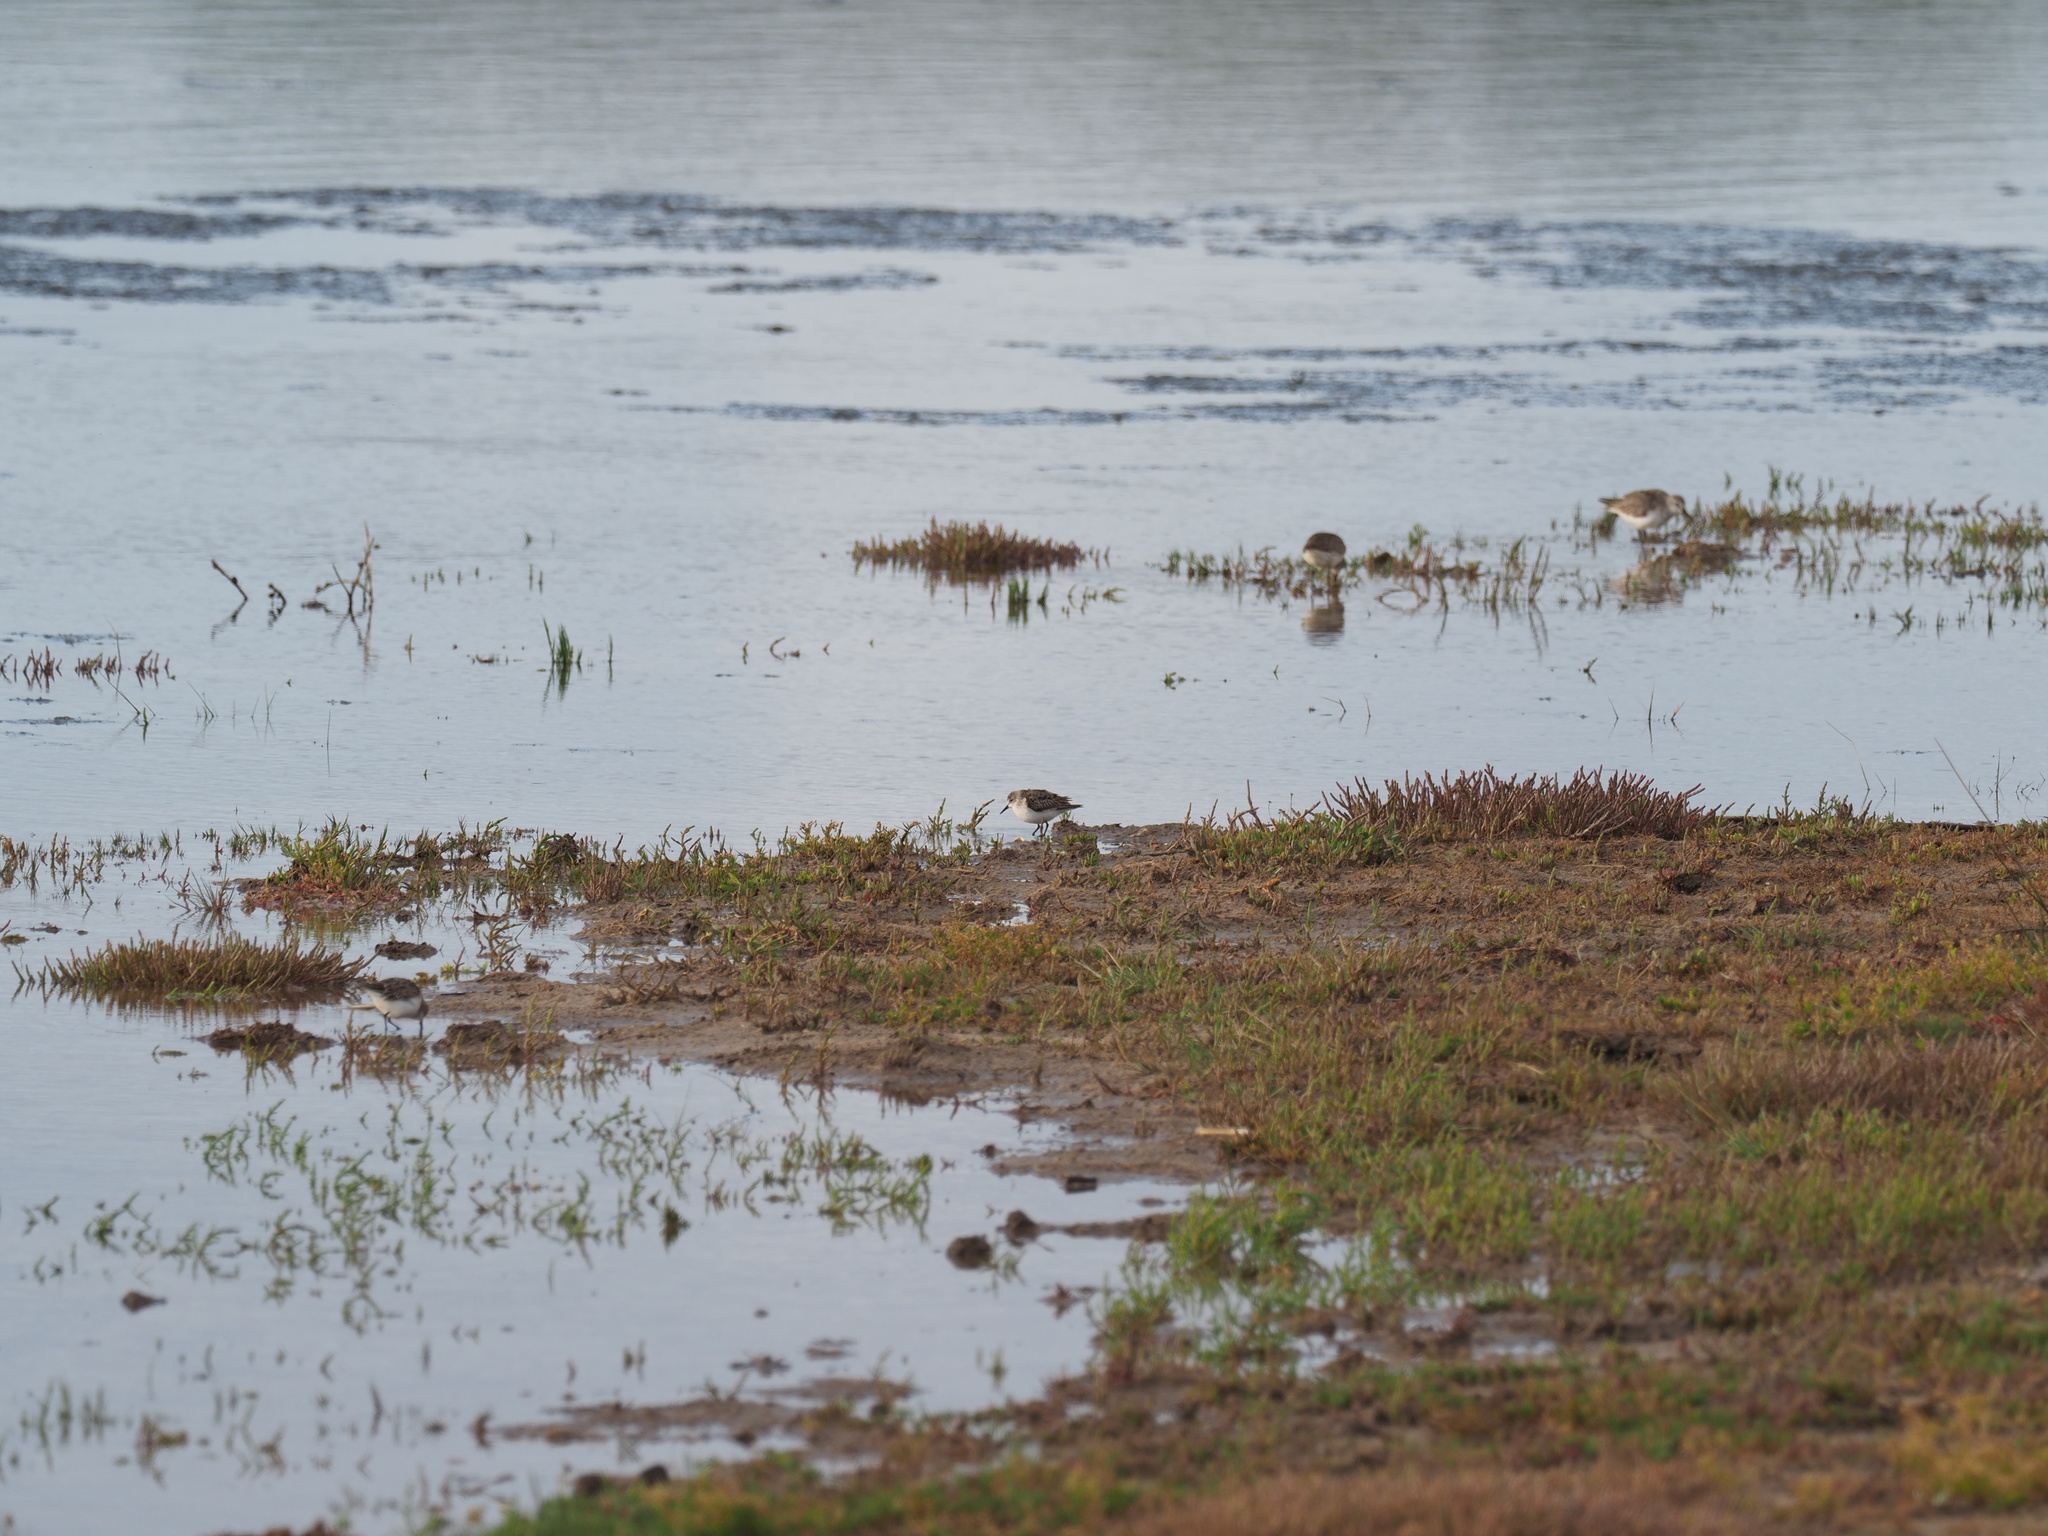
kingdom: Animalia
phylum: Chordata
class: Aves
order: Charadriiformes
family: Scolopacidae
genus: Calidris
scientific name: Calidris minuta
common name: Little stint
